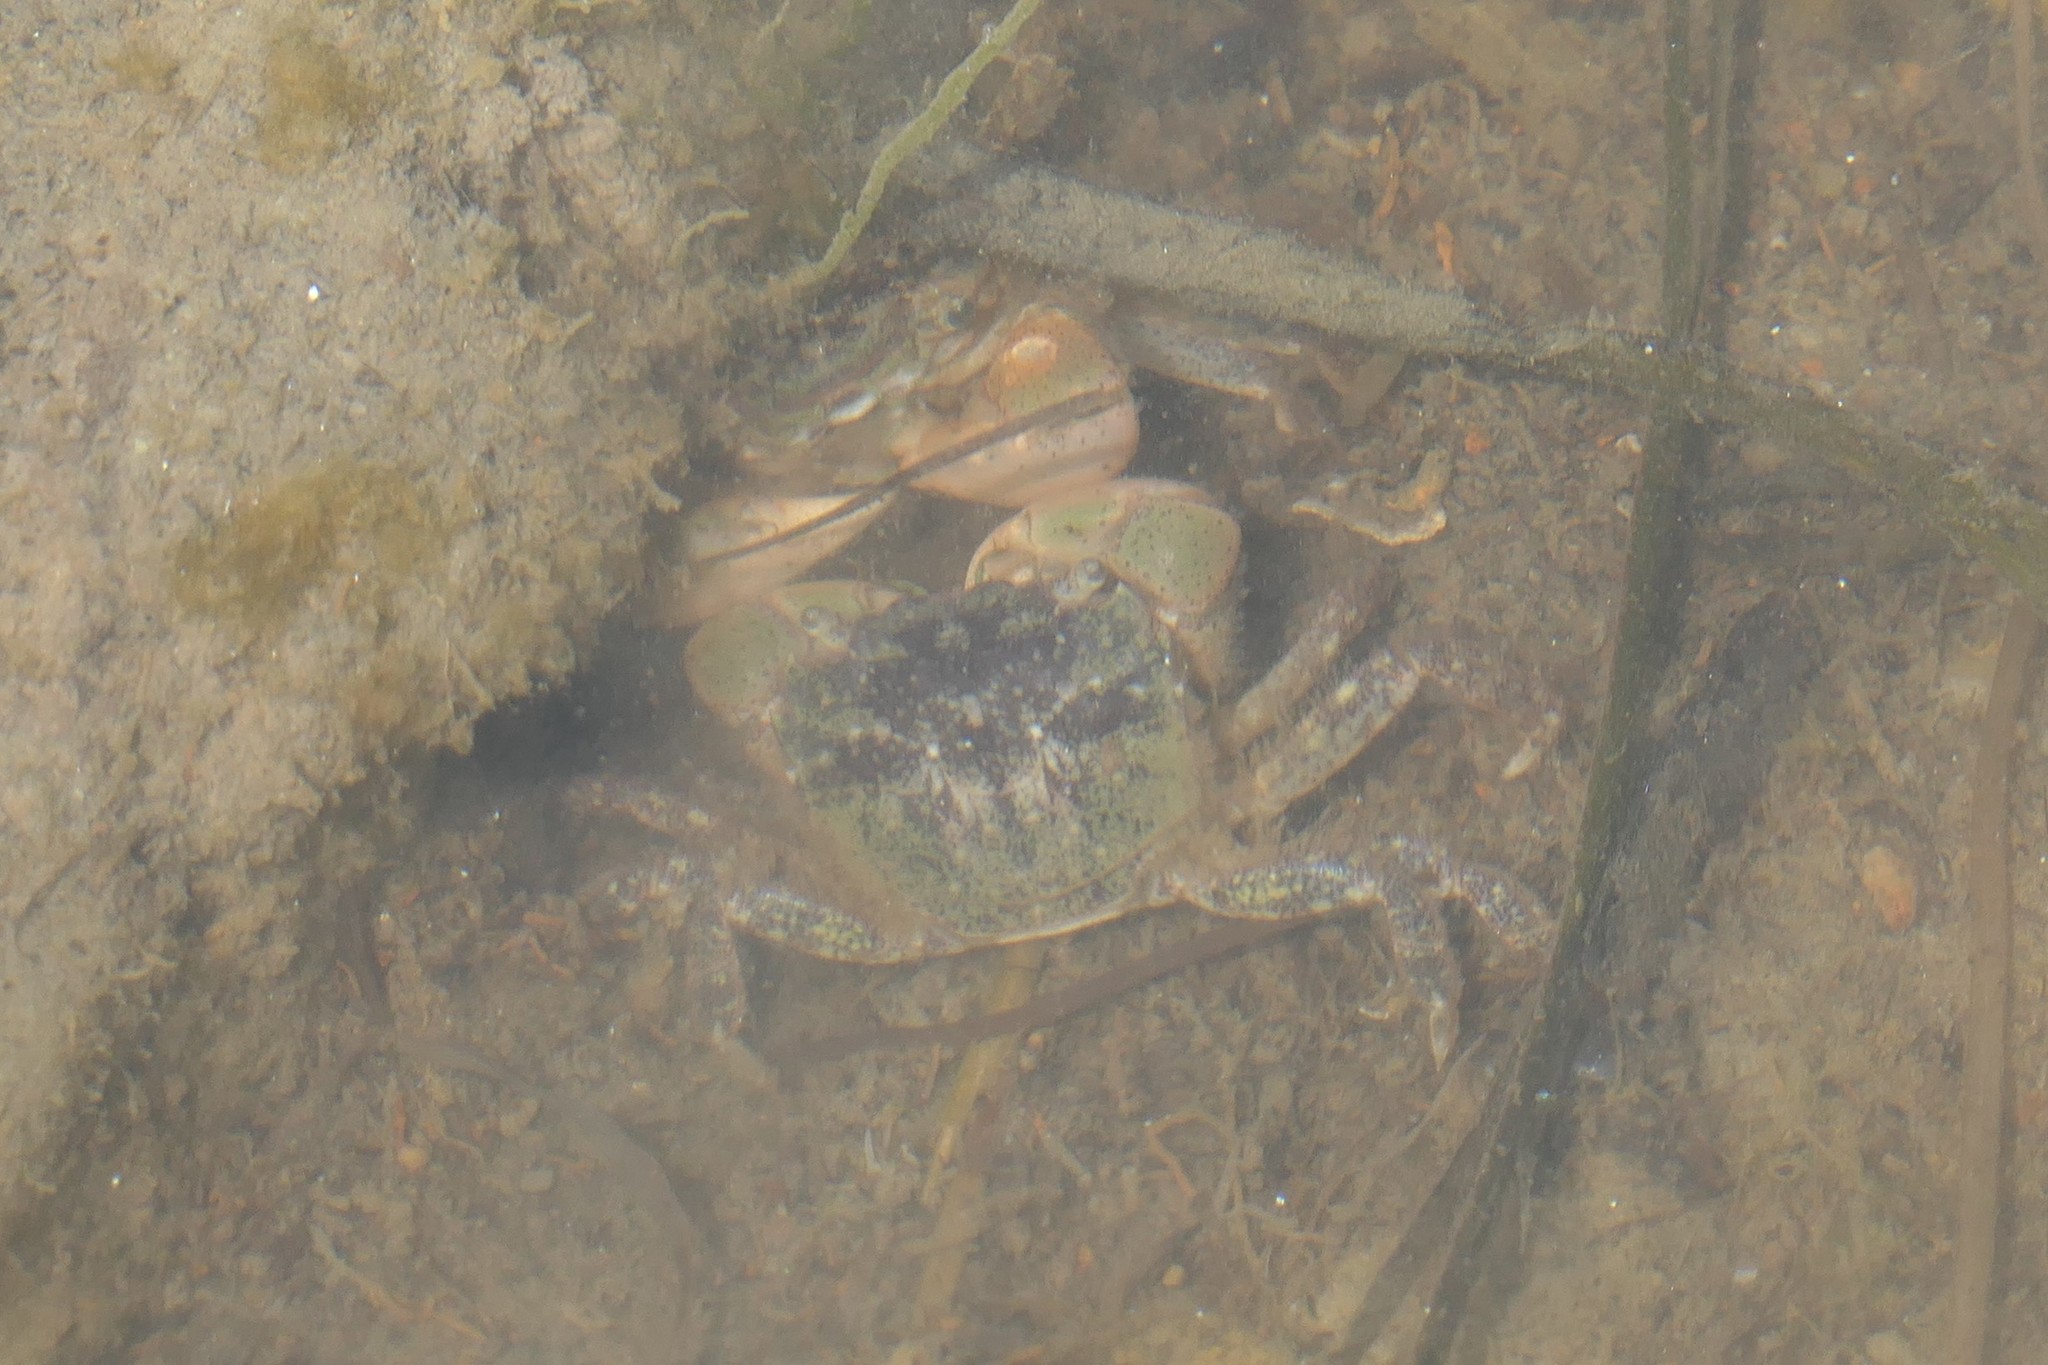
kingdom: Animalia
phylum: Arthropoda
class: Malacostraca
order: Decapoda
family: Varunidae
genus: Hemigrapsus
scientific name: Hemigrapsus oregonensis
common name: Yellow shore crab
